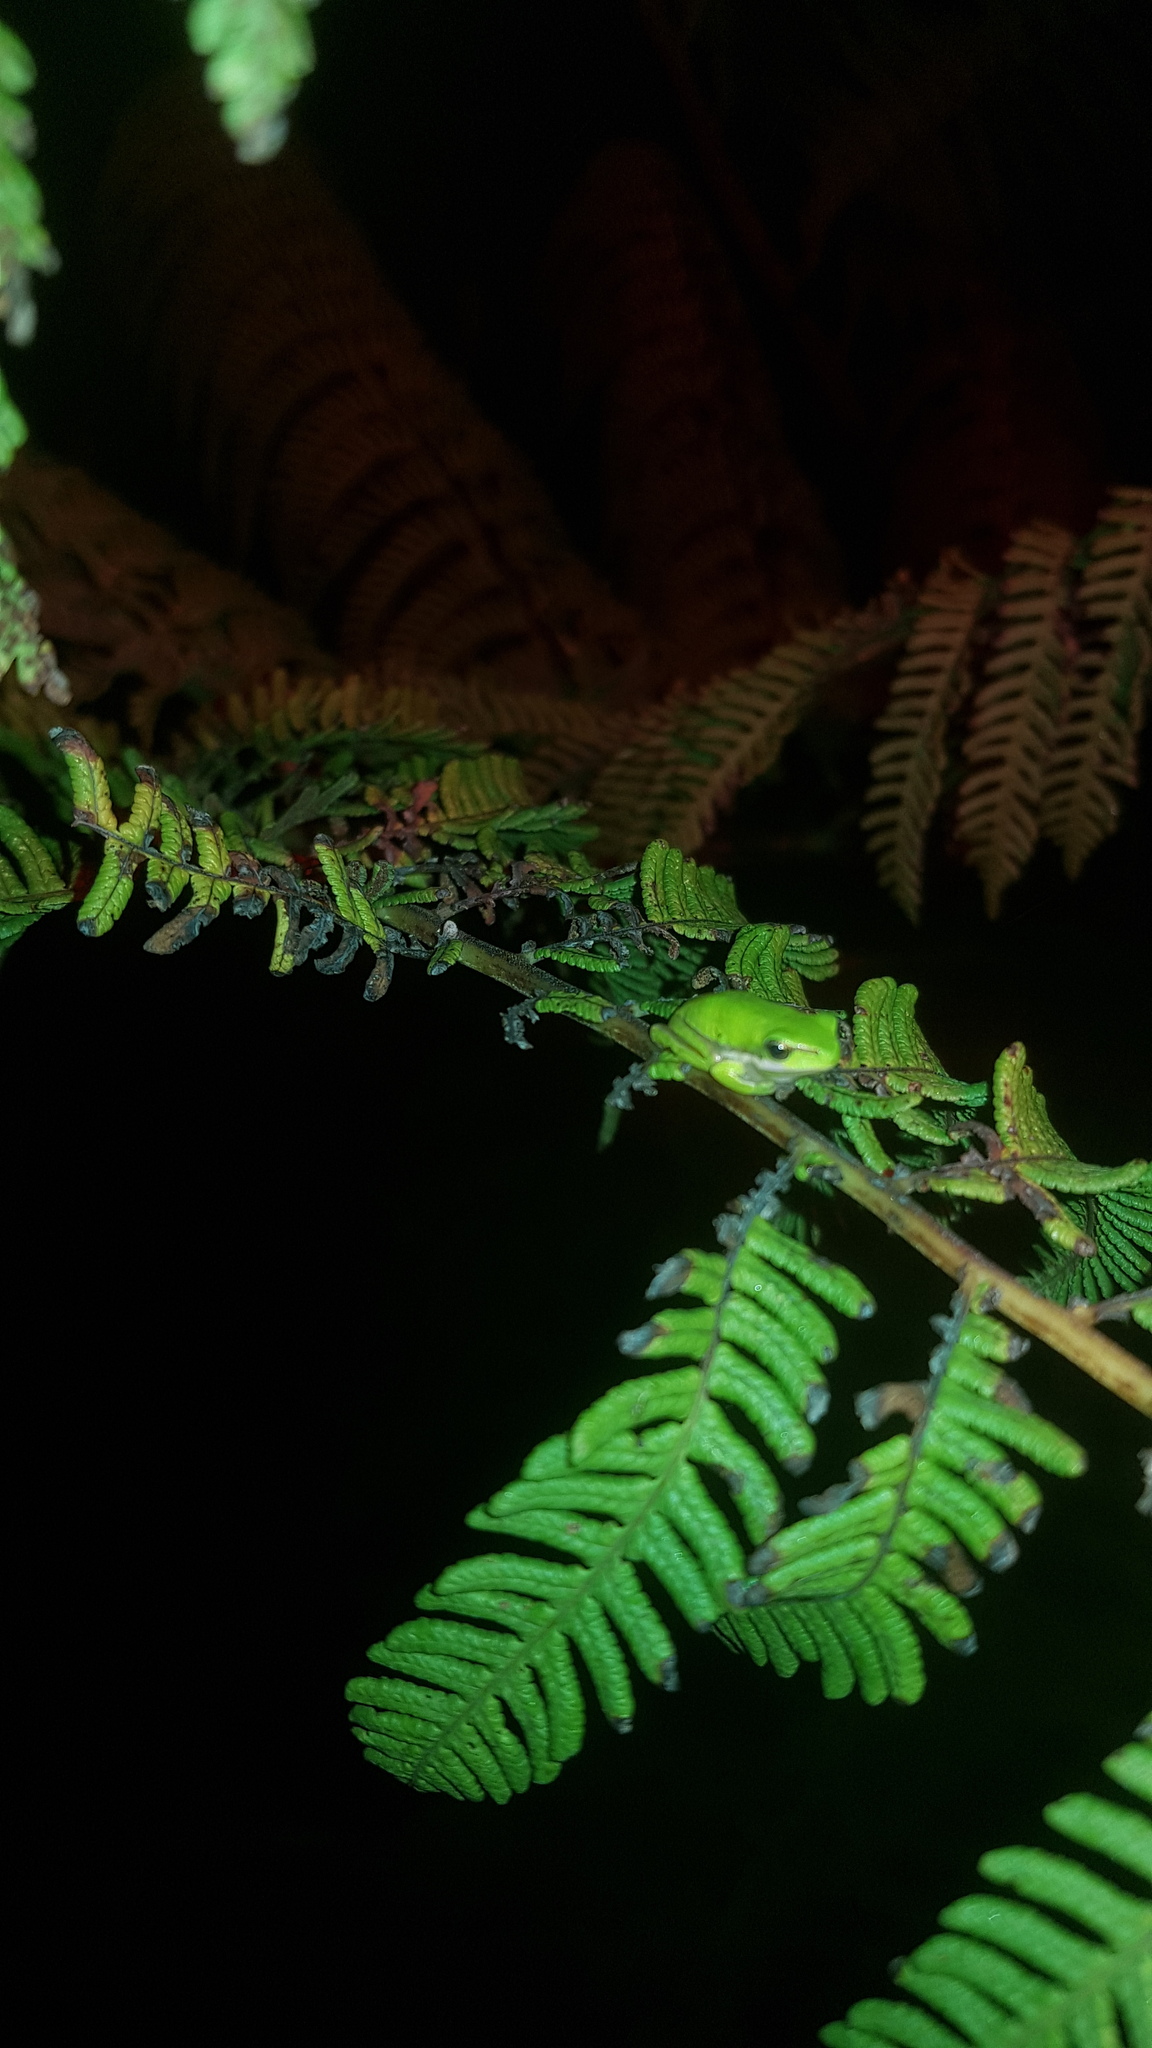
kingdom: Animalia
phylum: Chordata
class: Amphibia
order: Anura
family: Pelodryadidae
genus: Litoria
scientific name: Litoria fallax
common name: Eastern dwarf treefrog
